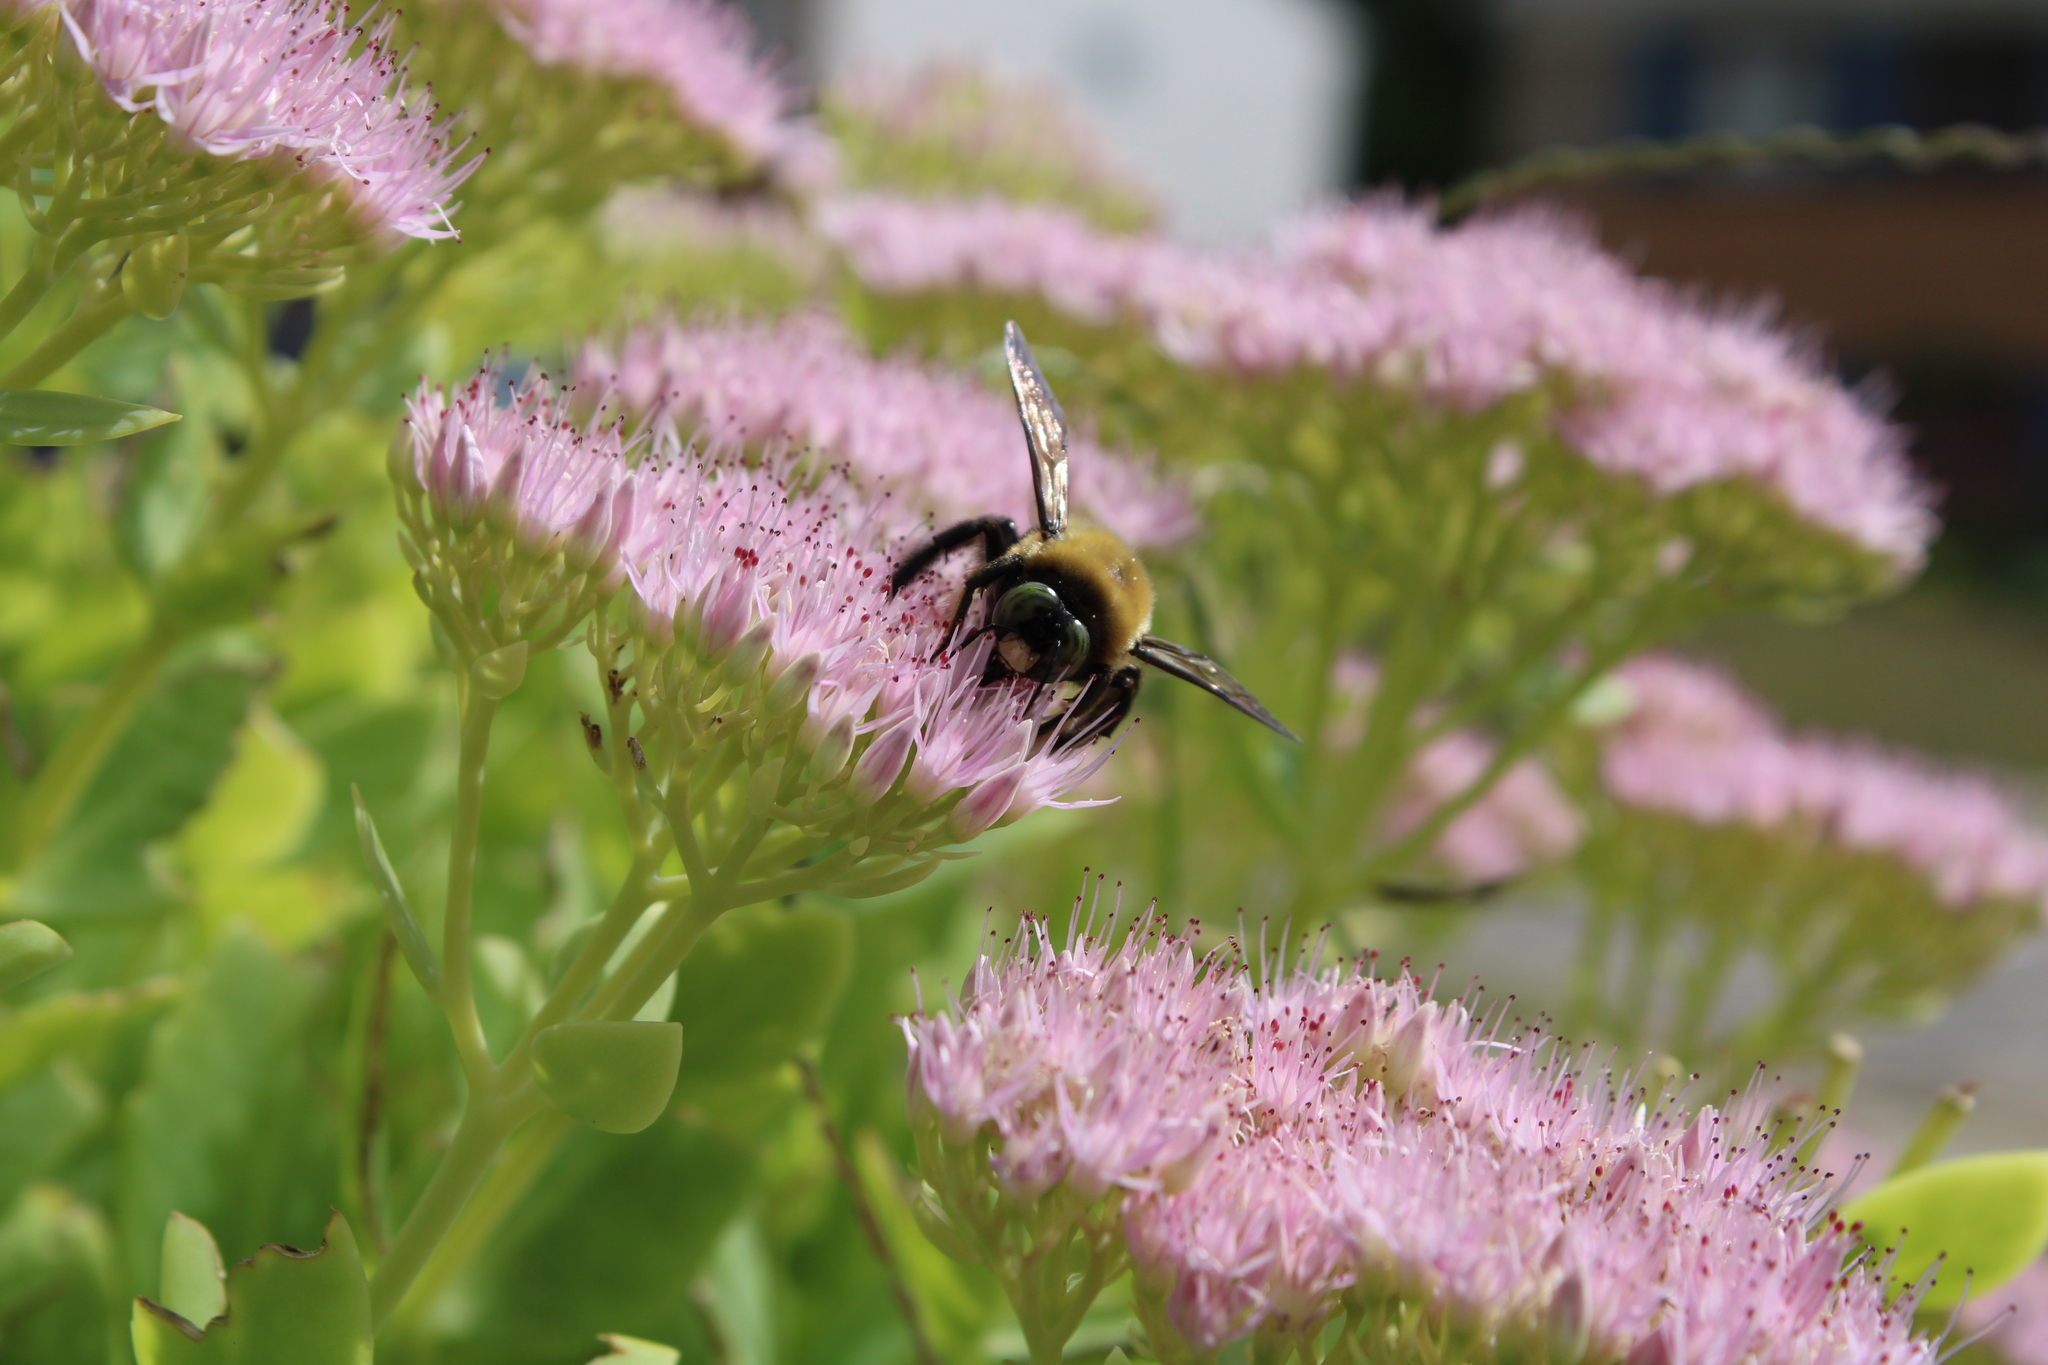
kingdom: Animalia
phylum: Arthropoda
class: Insecta
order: Hymenoptera
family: Apidae
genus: Xylocopa
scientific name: Xylocopa virginica
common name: Carpenter bee
